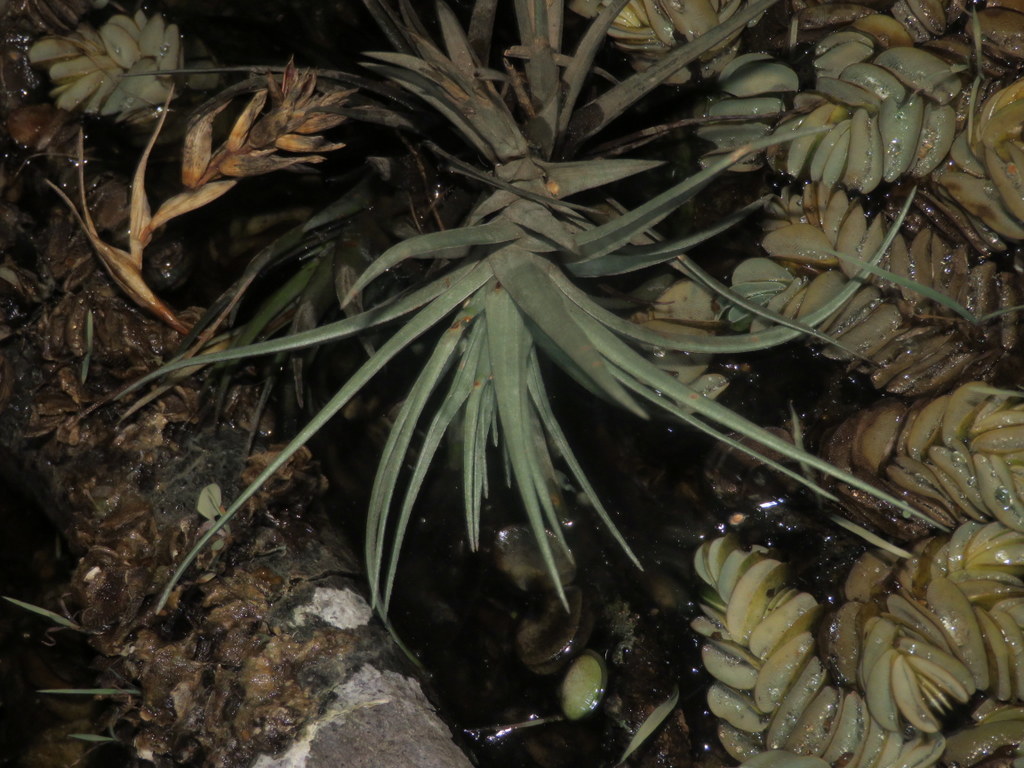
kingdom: Plantae
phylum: Tracheophyta
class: Liliopsida
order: Poales
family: Bromeliaceae
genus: Tillandsia
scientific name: Tillandsia aeranthos
